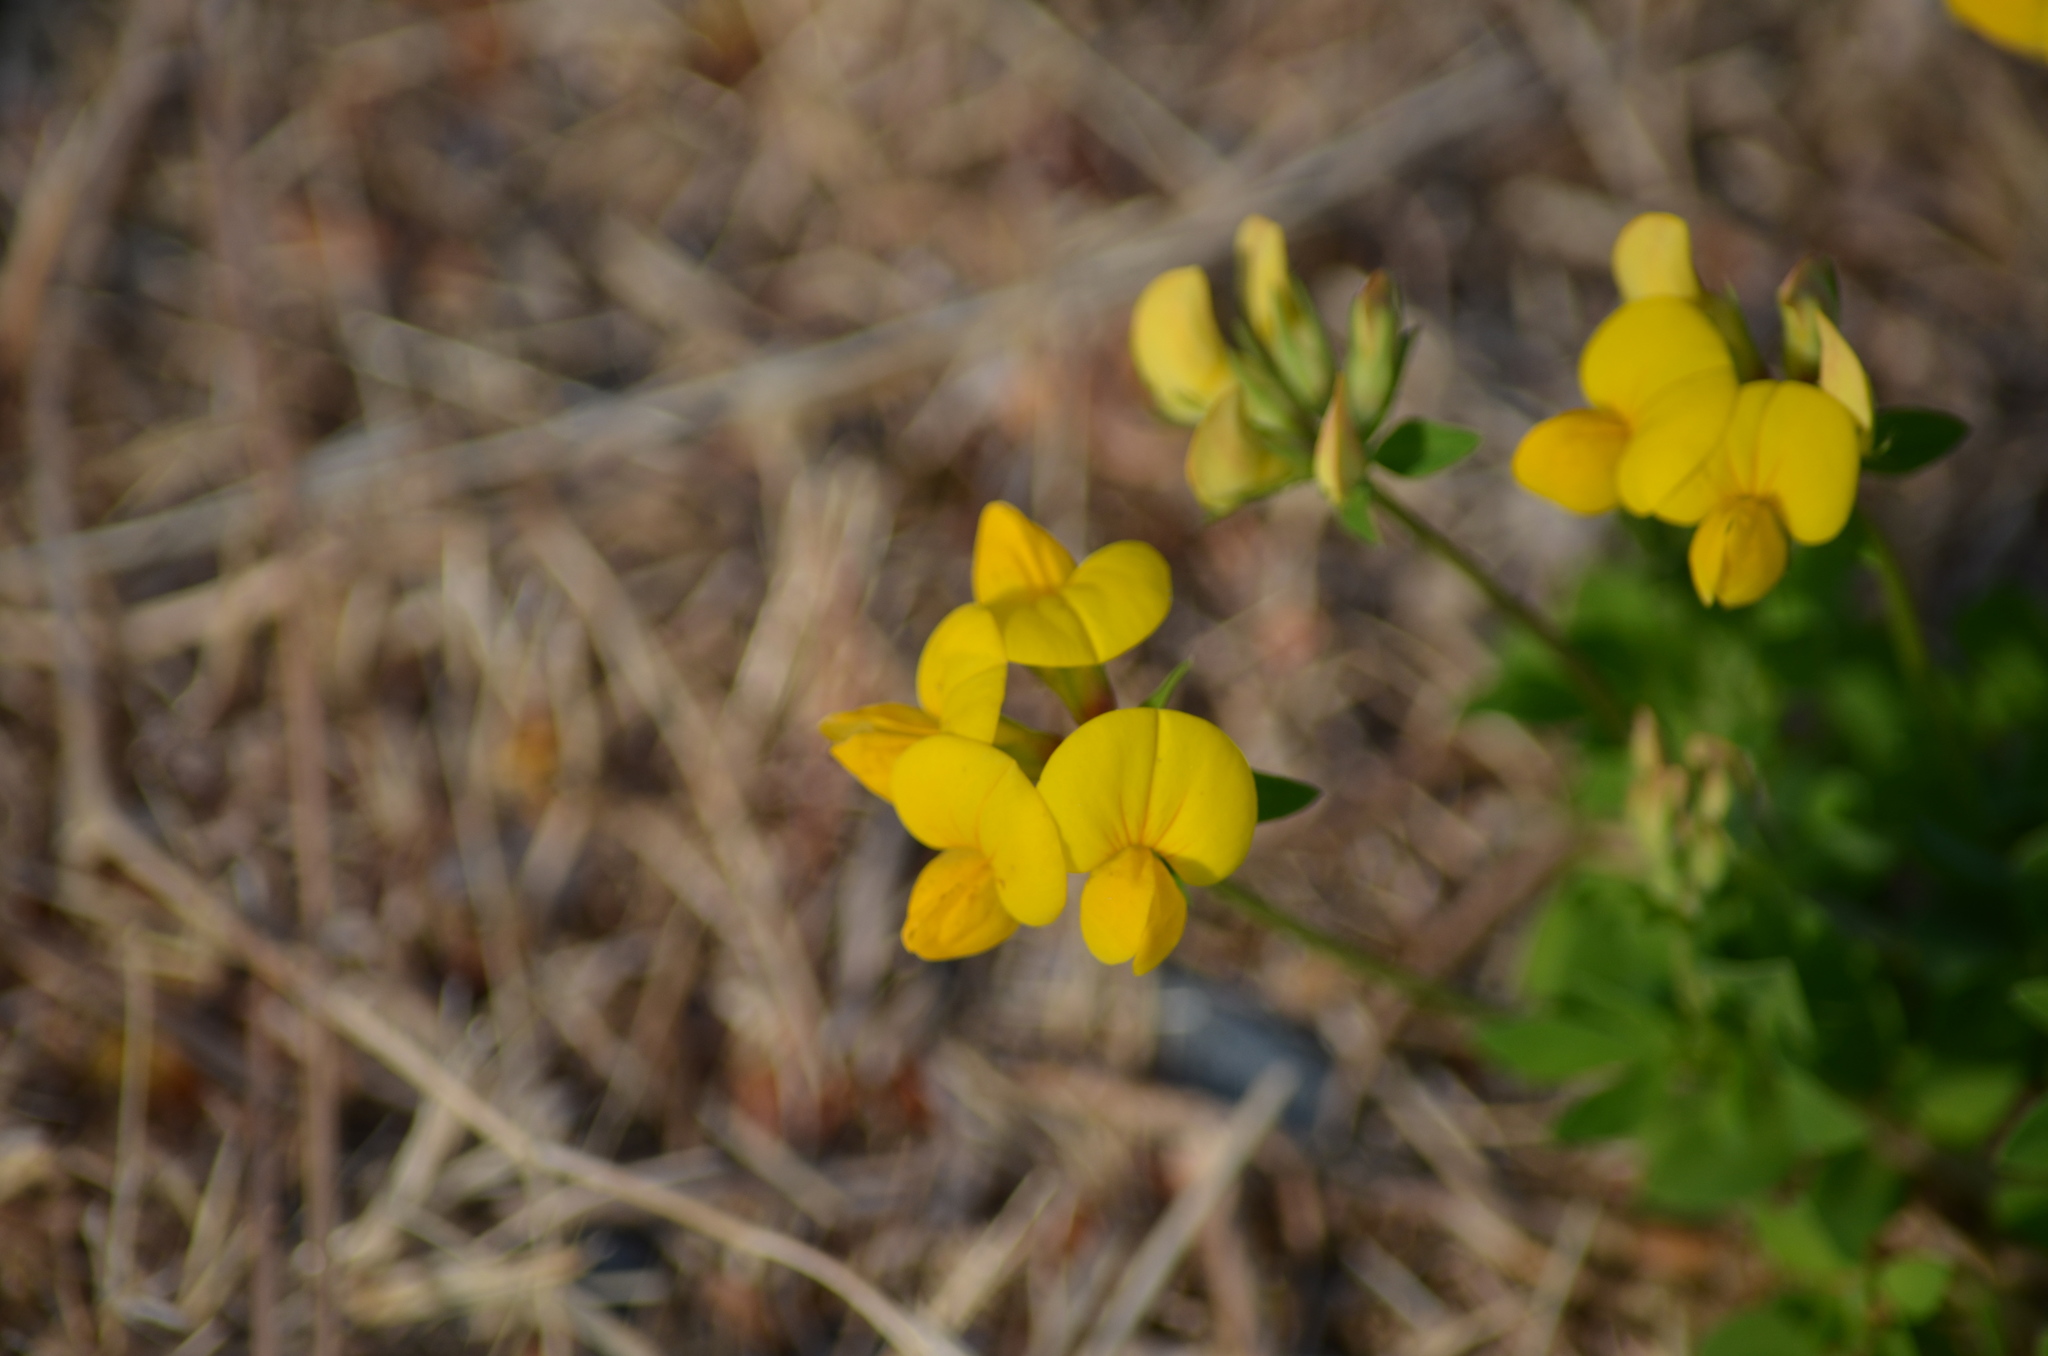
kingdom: Plantae
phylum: Tracheophyta
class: Magnoliopsida
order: Fabales
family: Fabaceae
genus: Lotus
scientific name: Lotus corniculatus
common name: Common bird's-foot-trefoil
